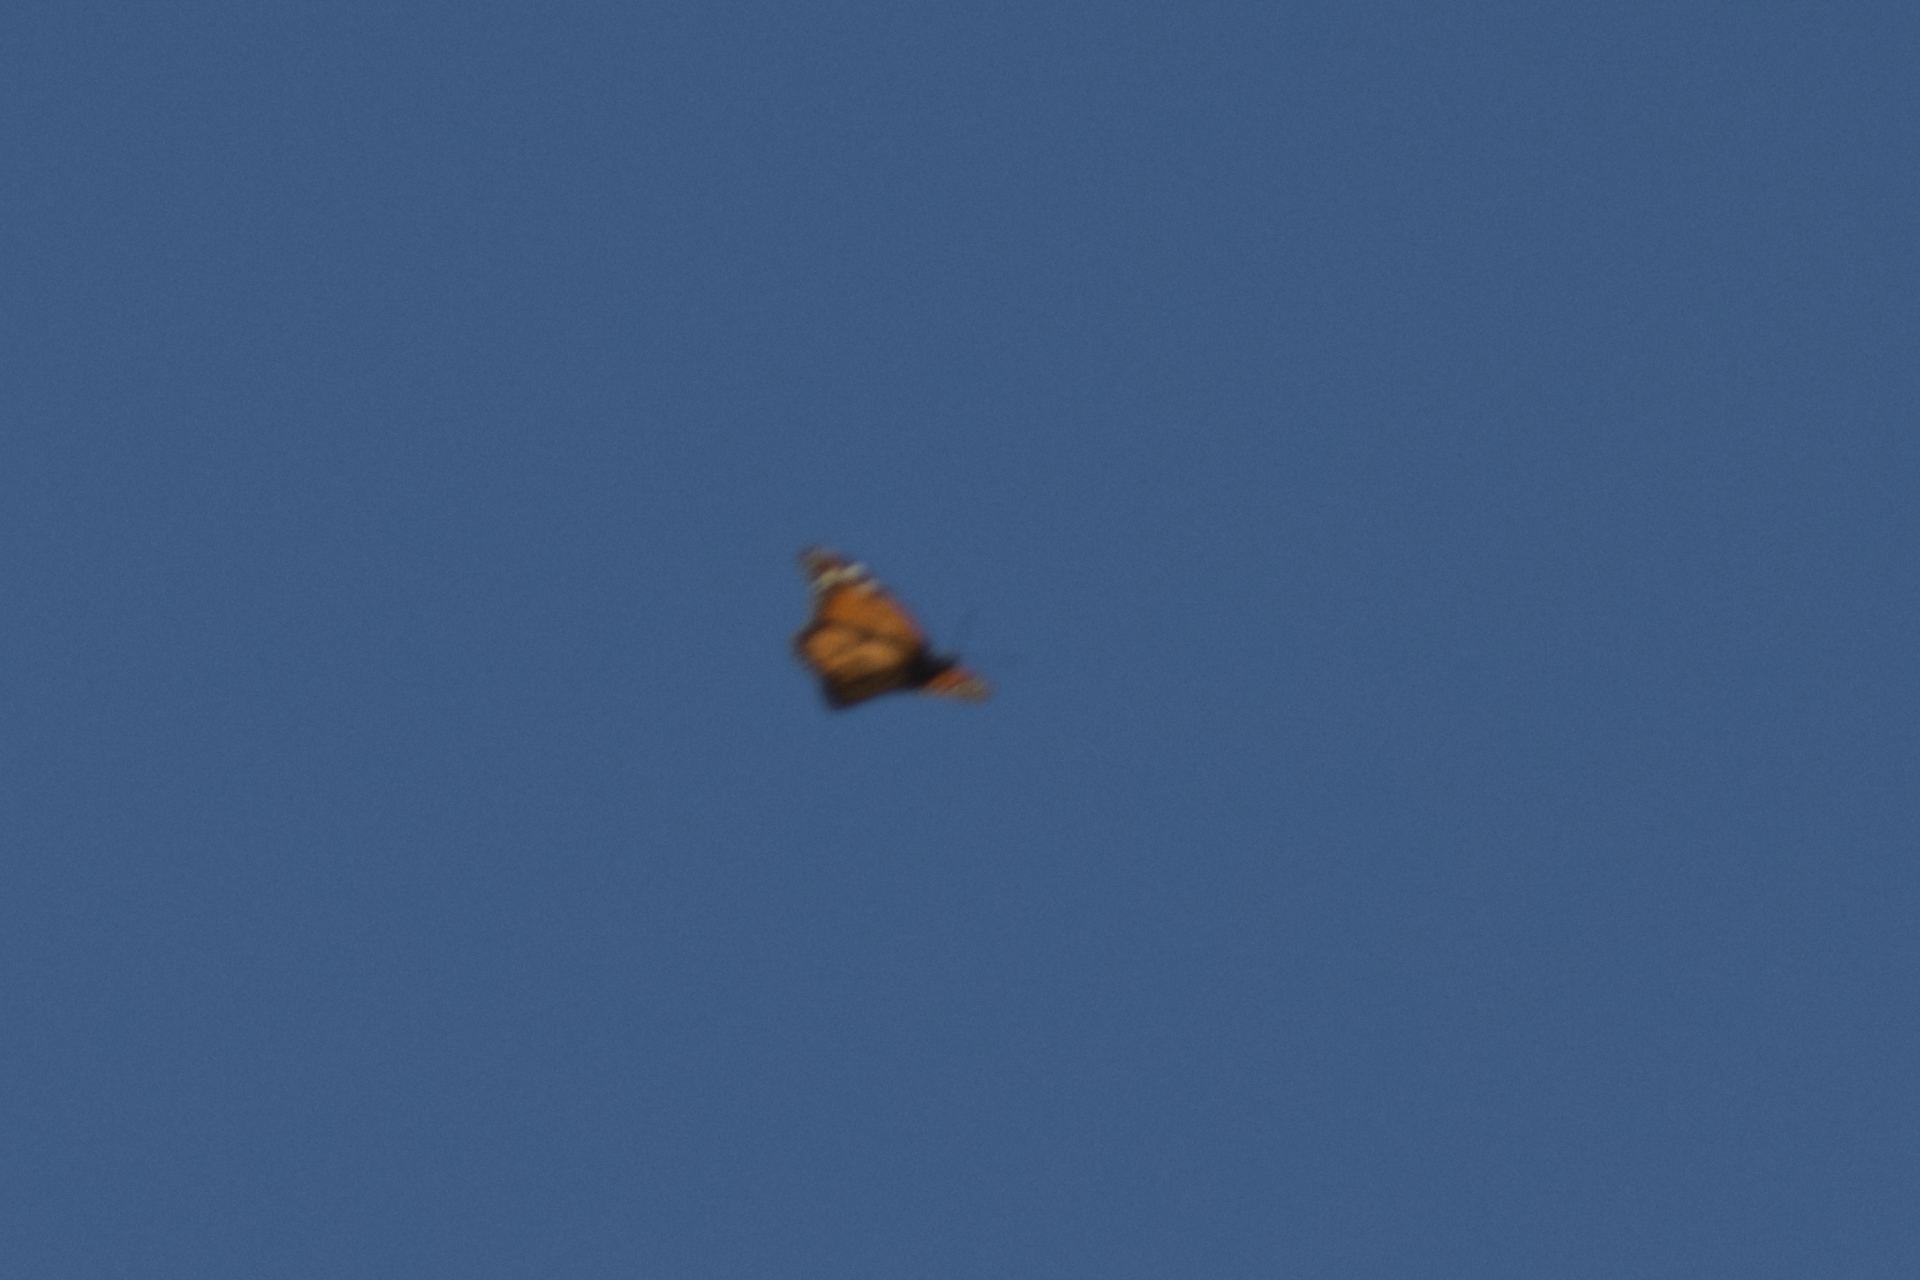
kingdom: Animalia
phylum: Arthropoda
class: Insecta
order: Lepidoptera
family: Nymphalidae
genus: Danaus
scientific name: Danaus plexippus
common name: Monarch
